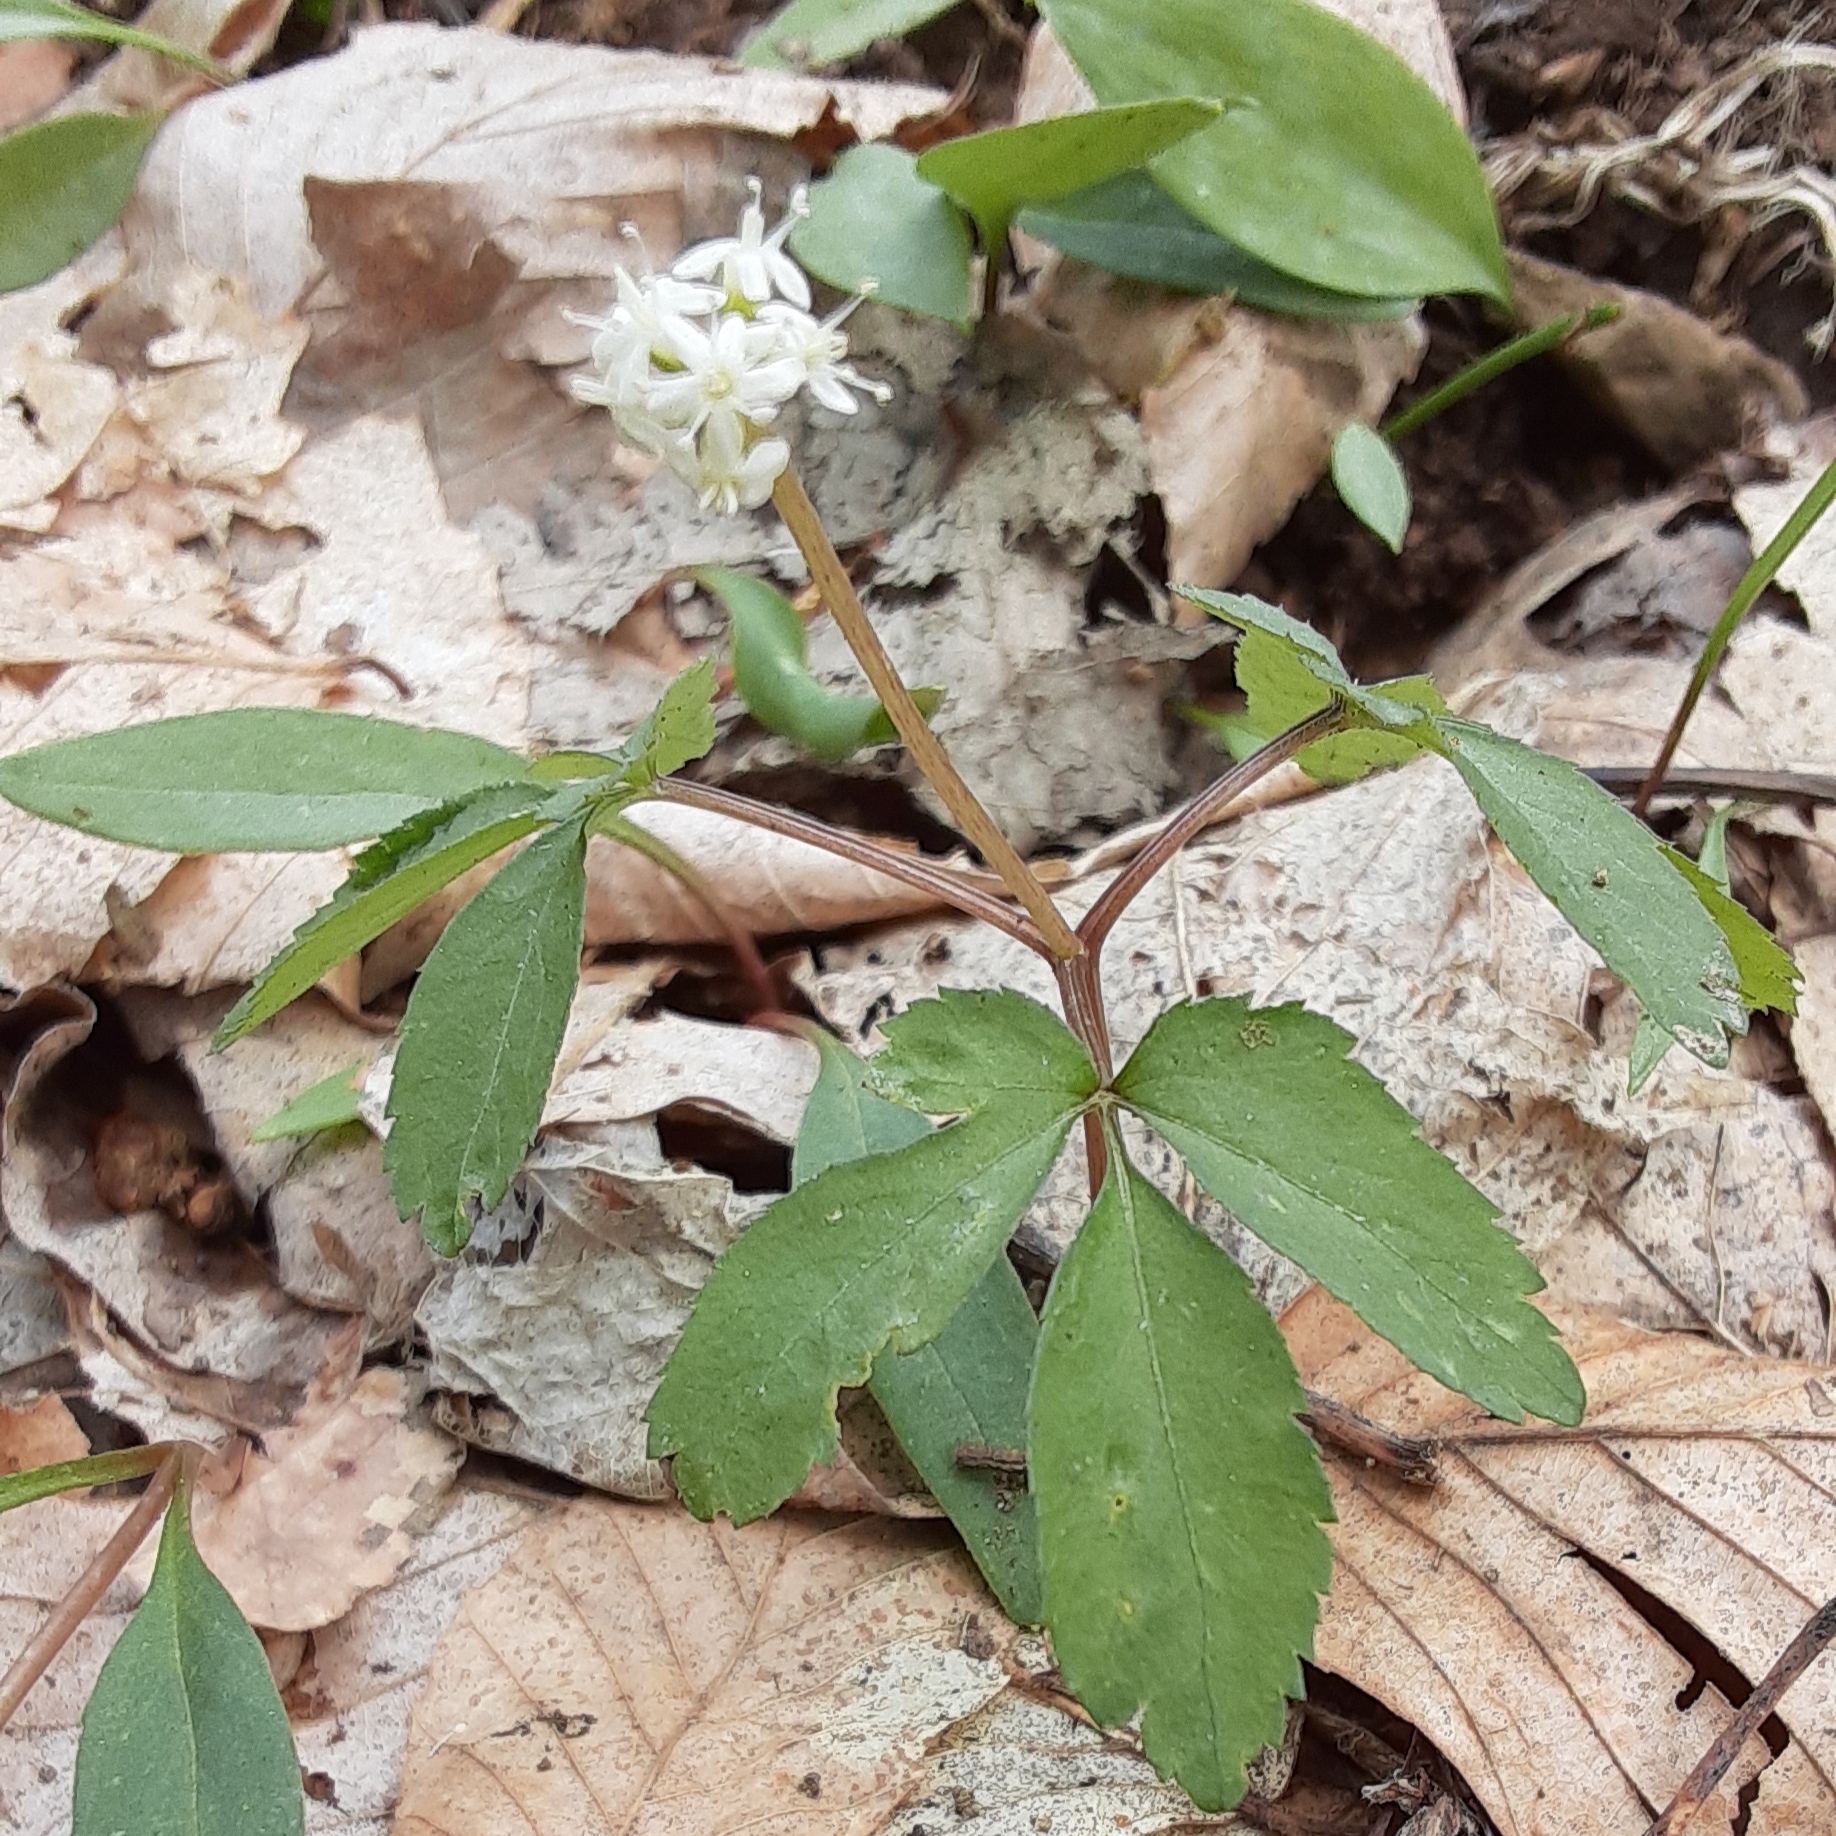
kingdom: Plantae
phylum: Tracheophyta
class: Magnoliopsida
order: Apiales
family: Araliaceae
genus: Panax
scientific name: Panax trifolius
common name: Dwarf ginseng
